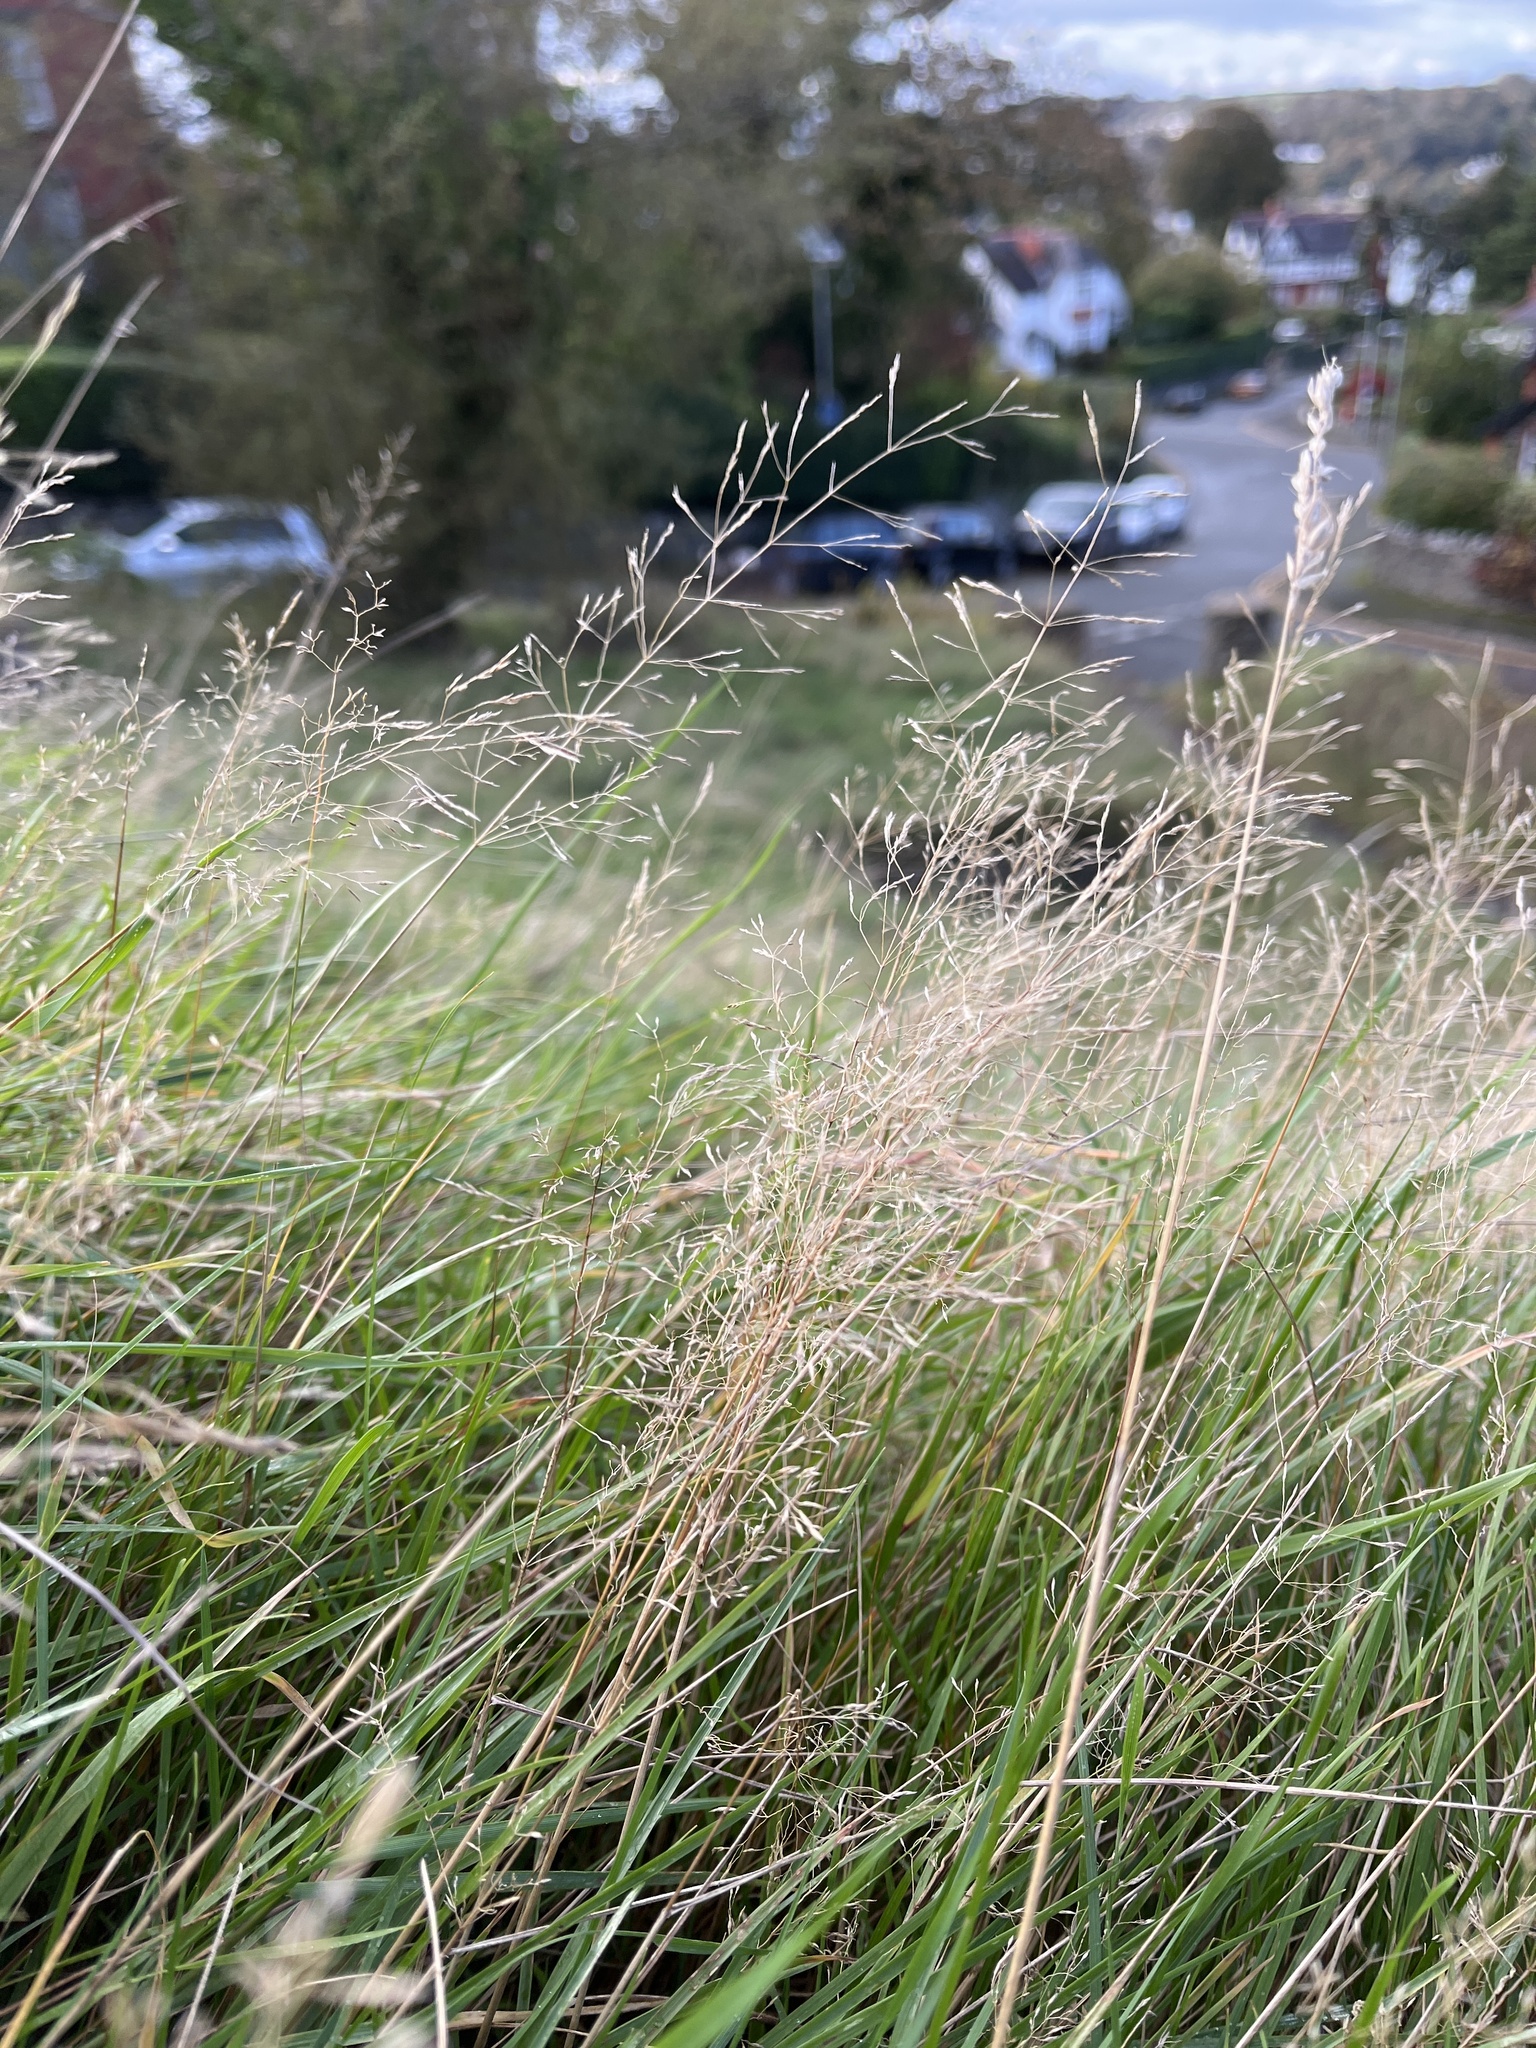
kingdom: Plantae
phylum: Tracheophyta
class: Liliopsida
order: Poales
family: Poaceae
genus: Agrostis
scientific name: Agrostis capillaris
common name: Colonial bentgrass
